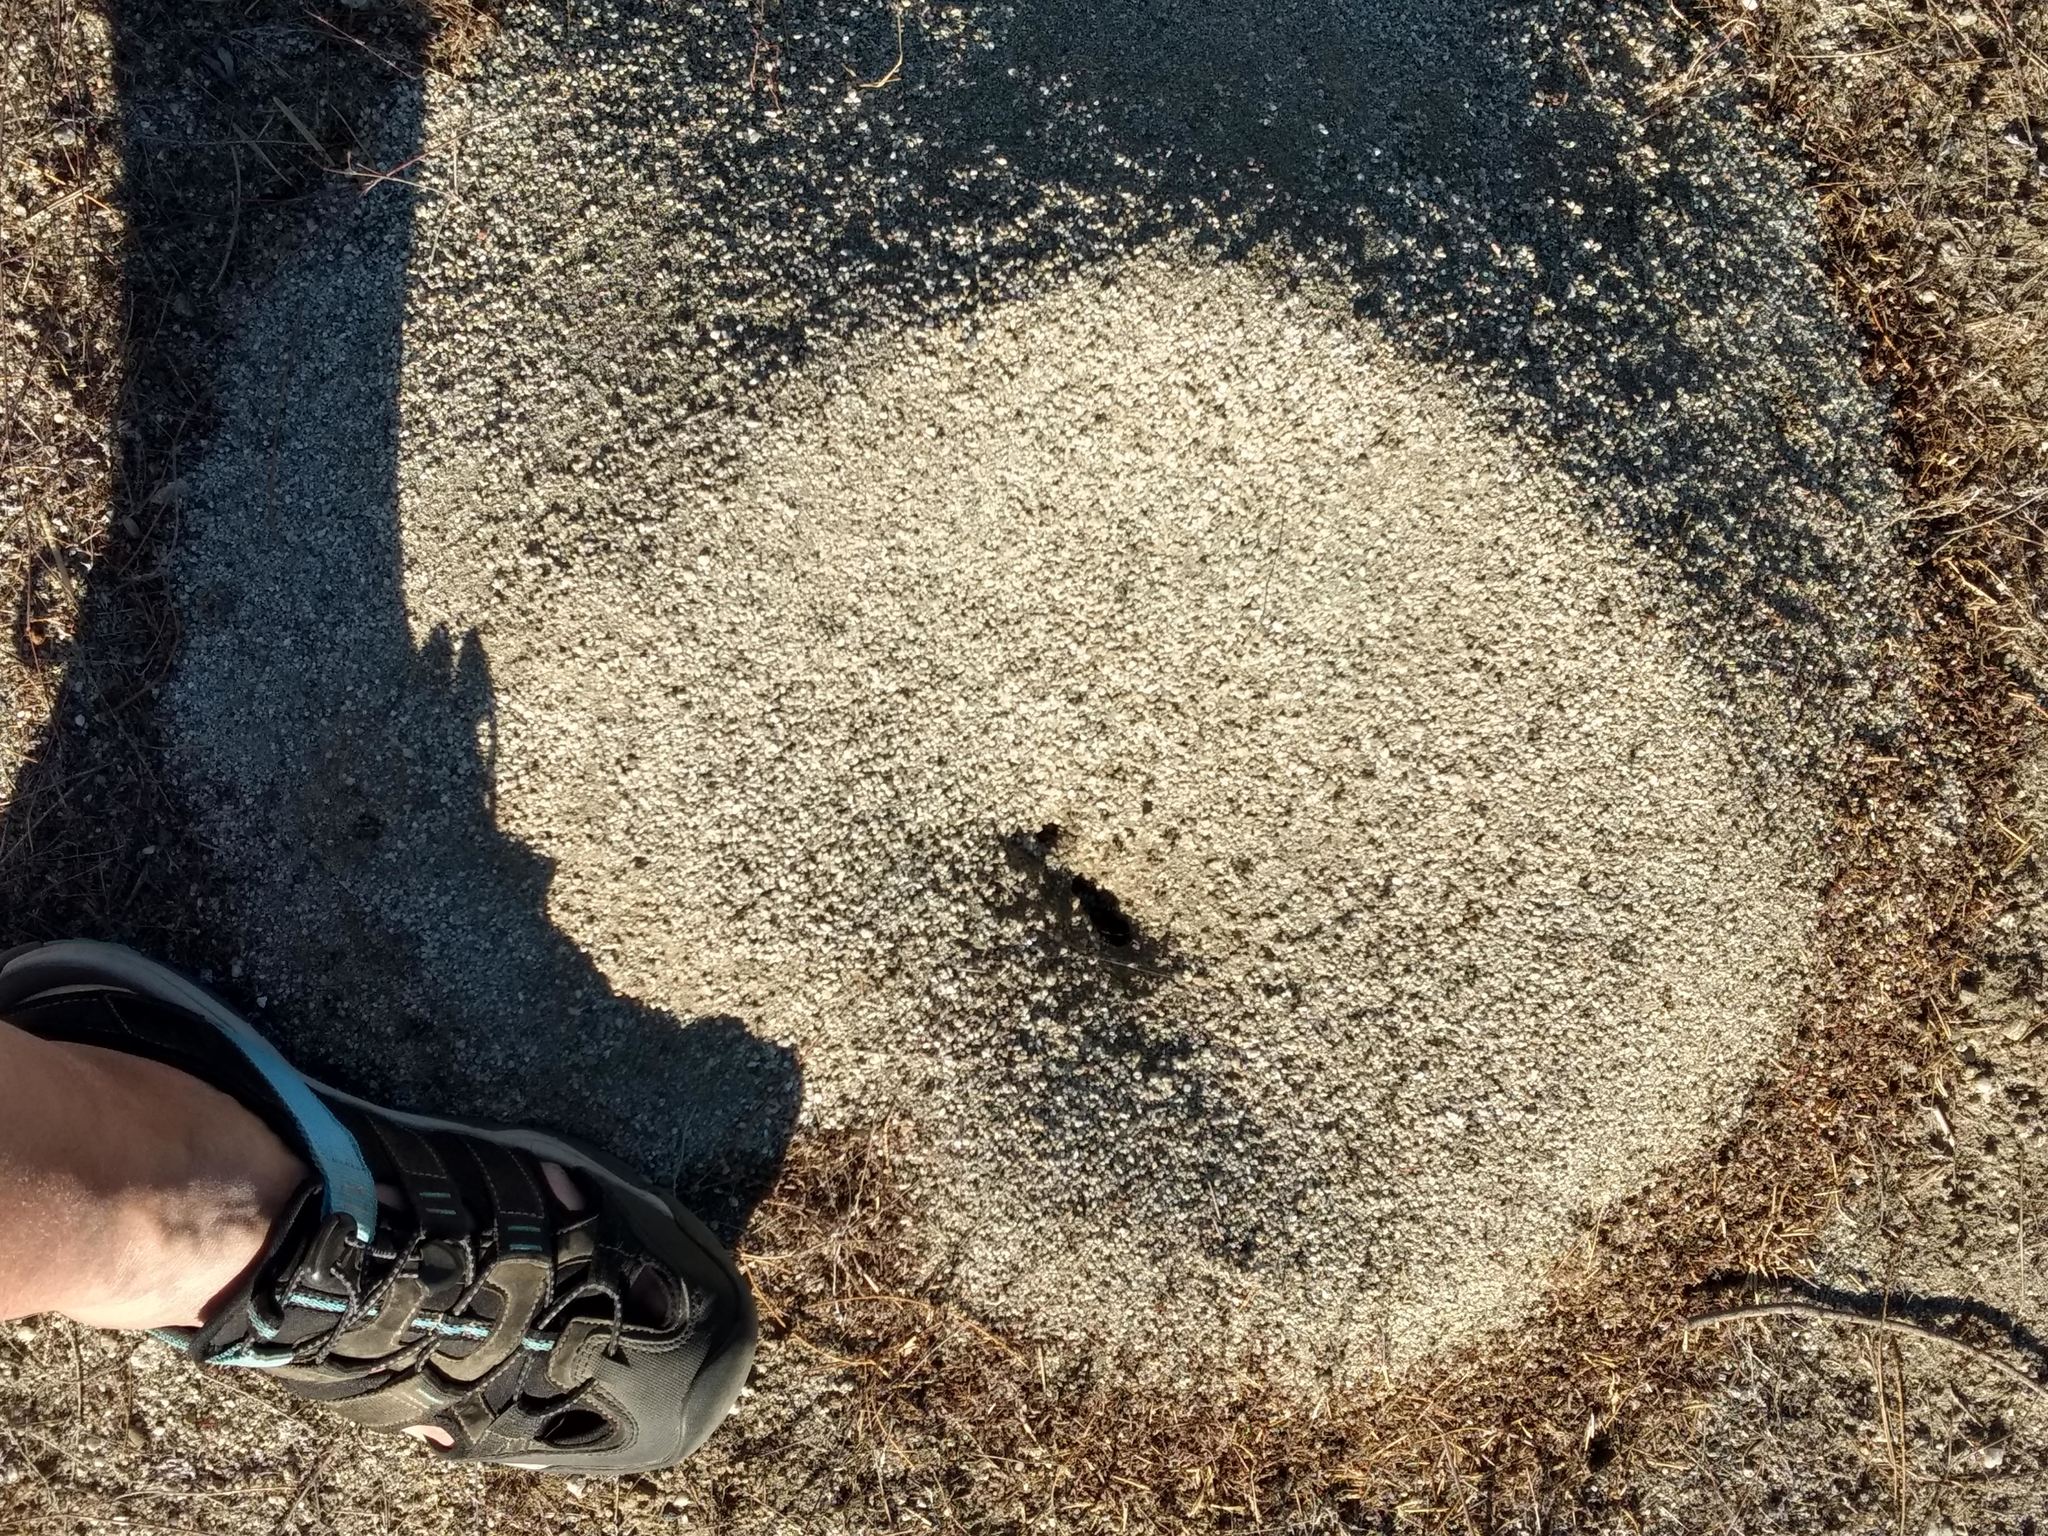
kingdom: Animalia
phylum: Arthropoda
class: Insecta
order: Hymenoptera
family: Formicidae
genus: Messor
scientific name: Messor pergandei
